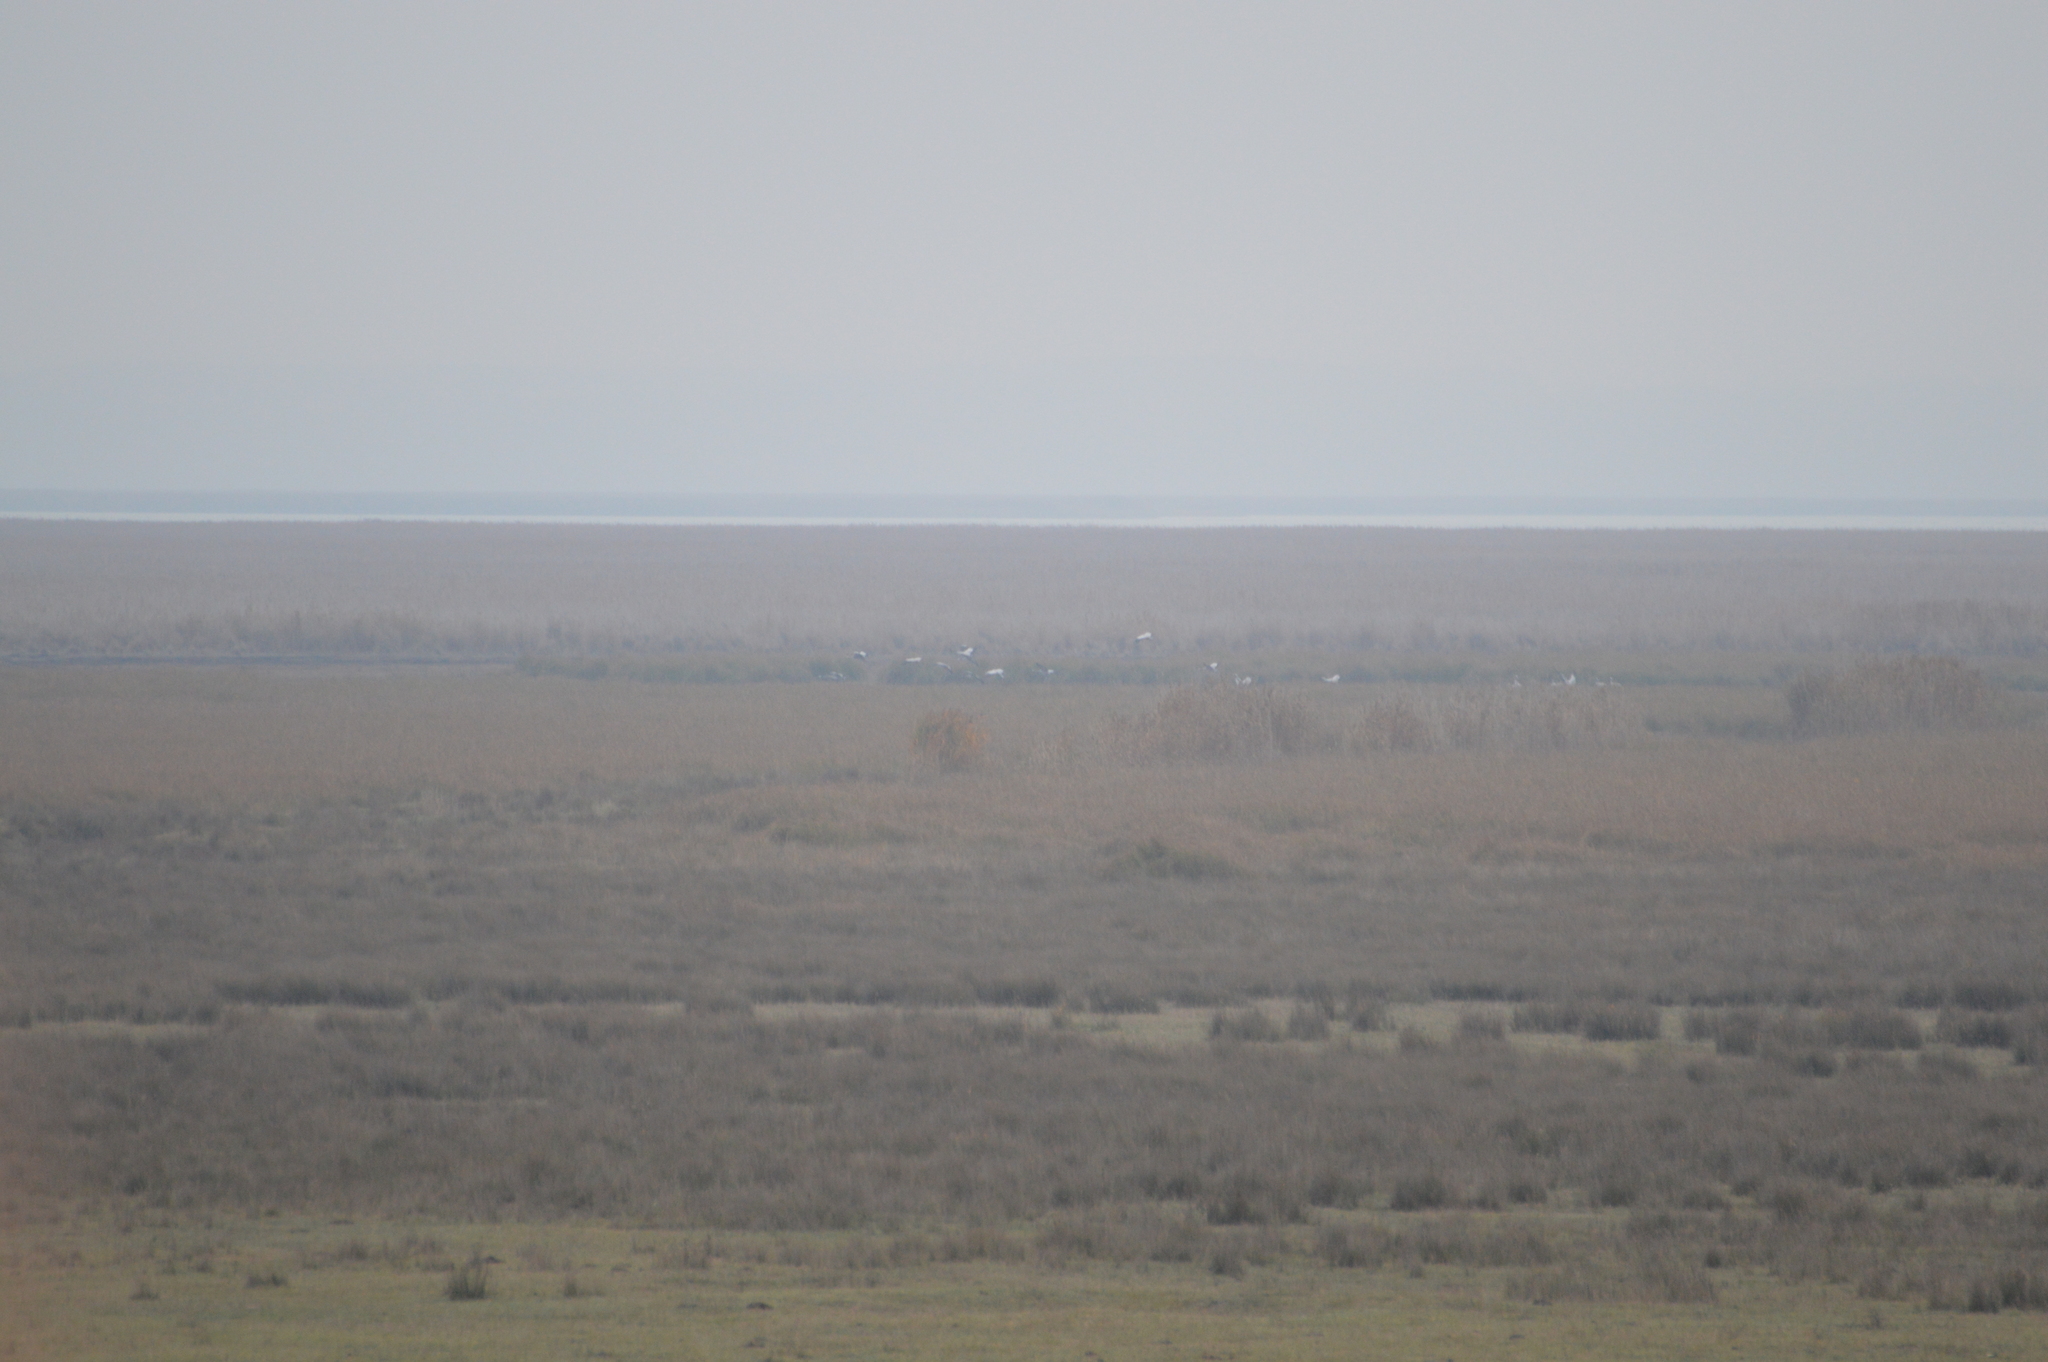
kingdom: Animalia
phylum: Chordata
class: Aves
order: Gruiformes
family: Gruidae
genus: Grus
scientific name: Grus grus
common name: Common crane
